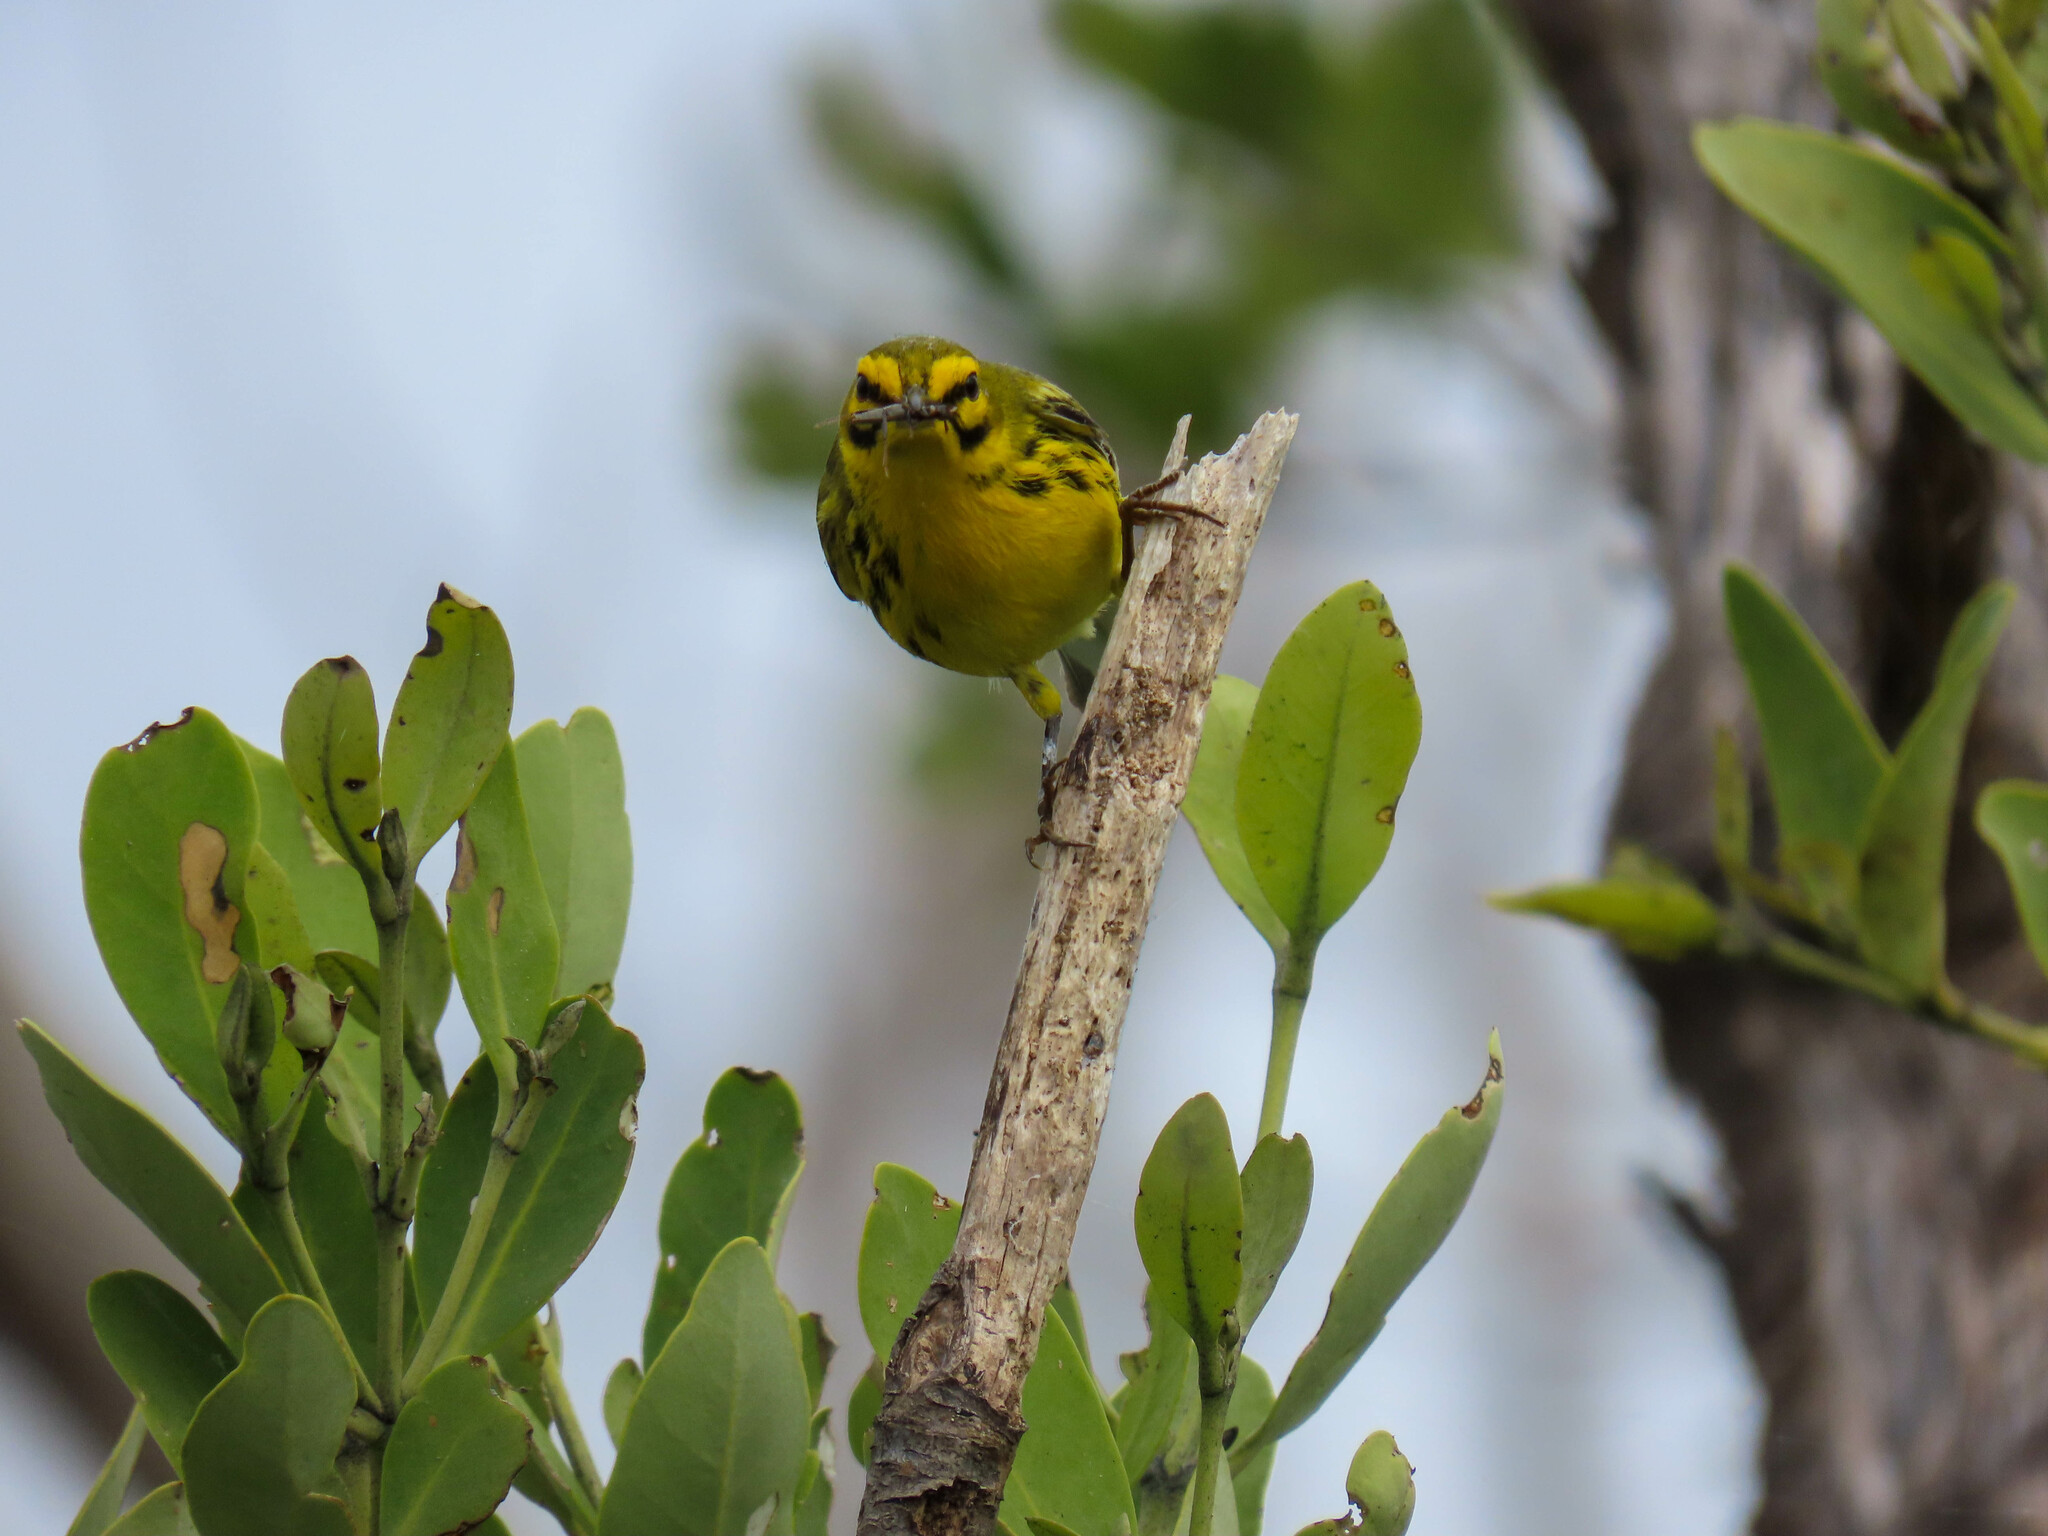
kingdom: Animalia
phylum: Chordata
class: Aves
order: Passeriformes
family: Parulidae
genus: Setophaga
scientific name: Setophaga discolor
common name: Prairie warbler
